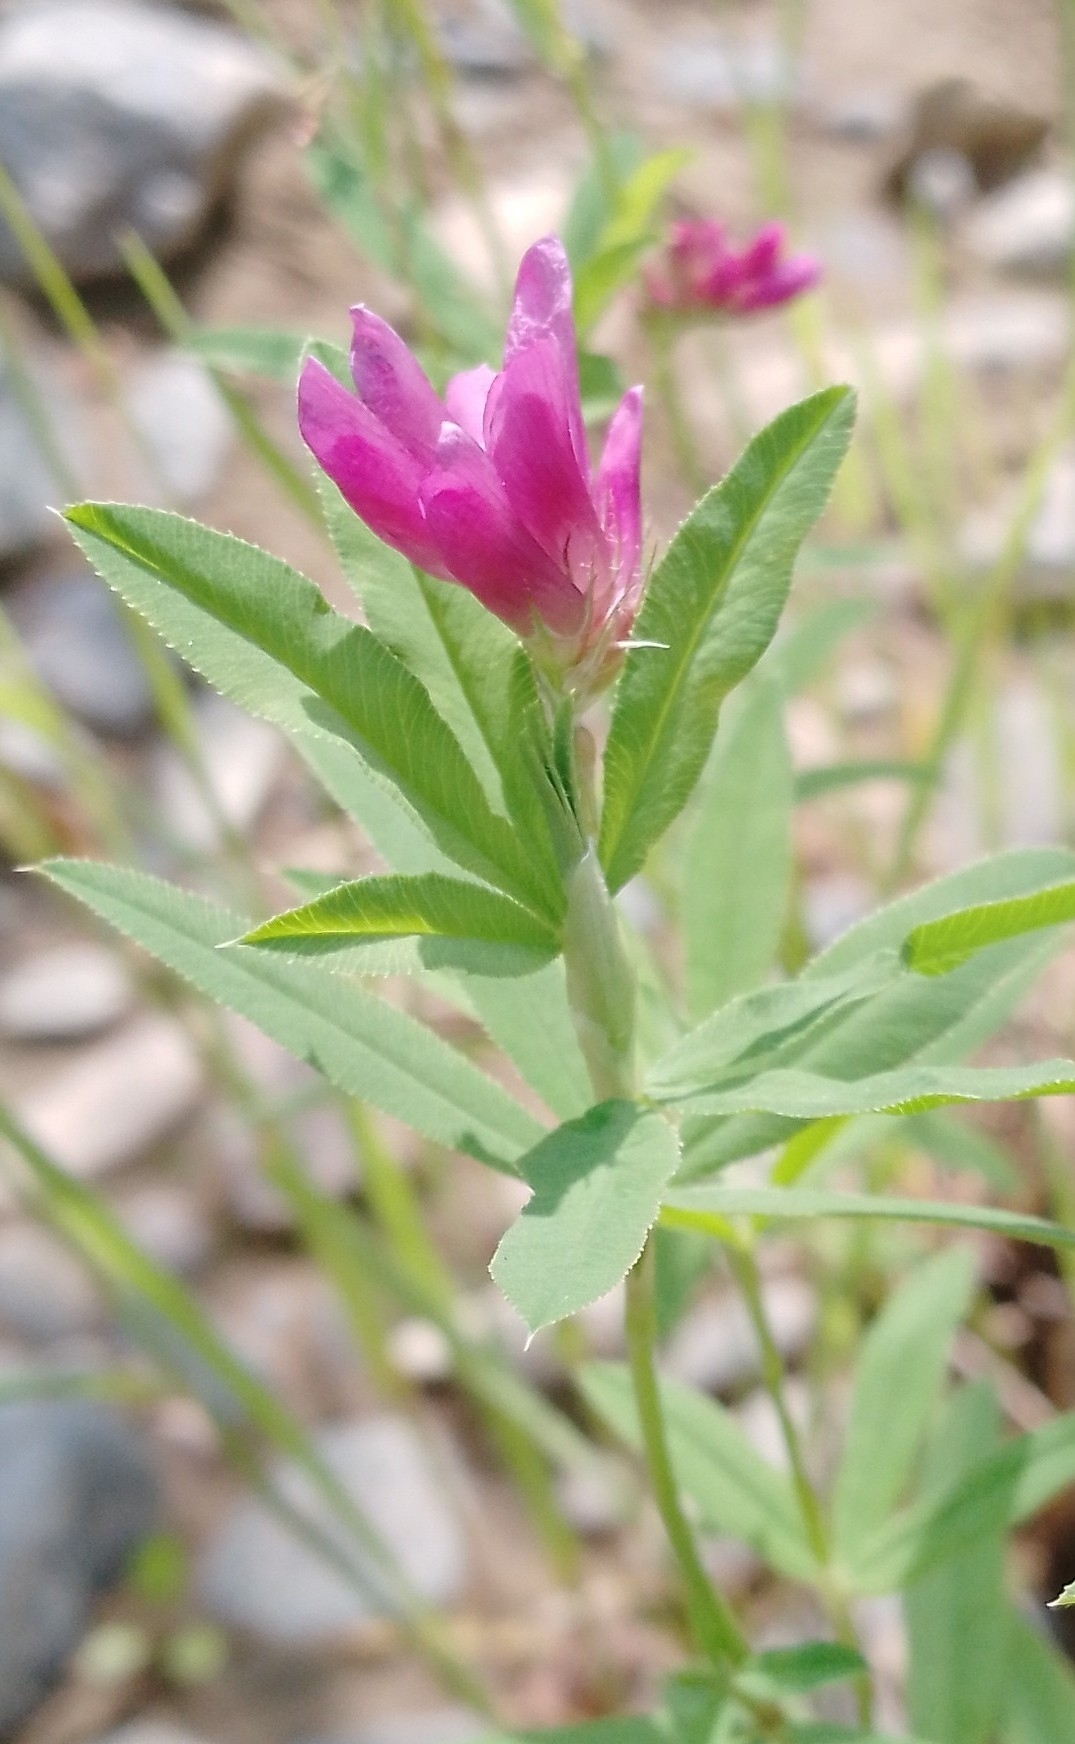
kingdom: Plantae
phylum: Tracheophyta
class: Magnoliopsida
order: Fabales
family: Fabaceae
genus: Trifolium
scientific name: Trifolium lupinaster
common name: Lupine clover
